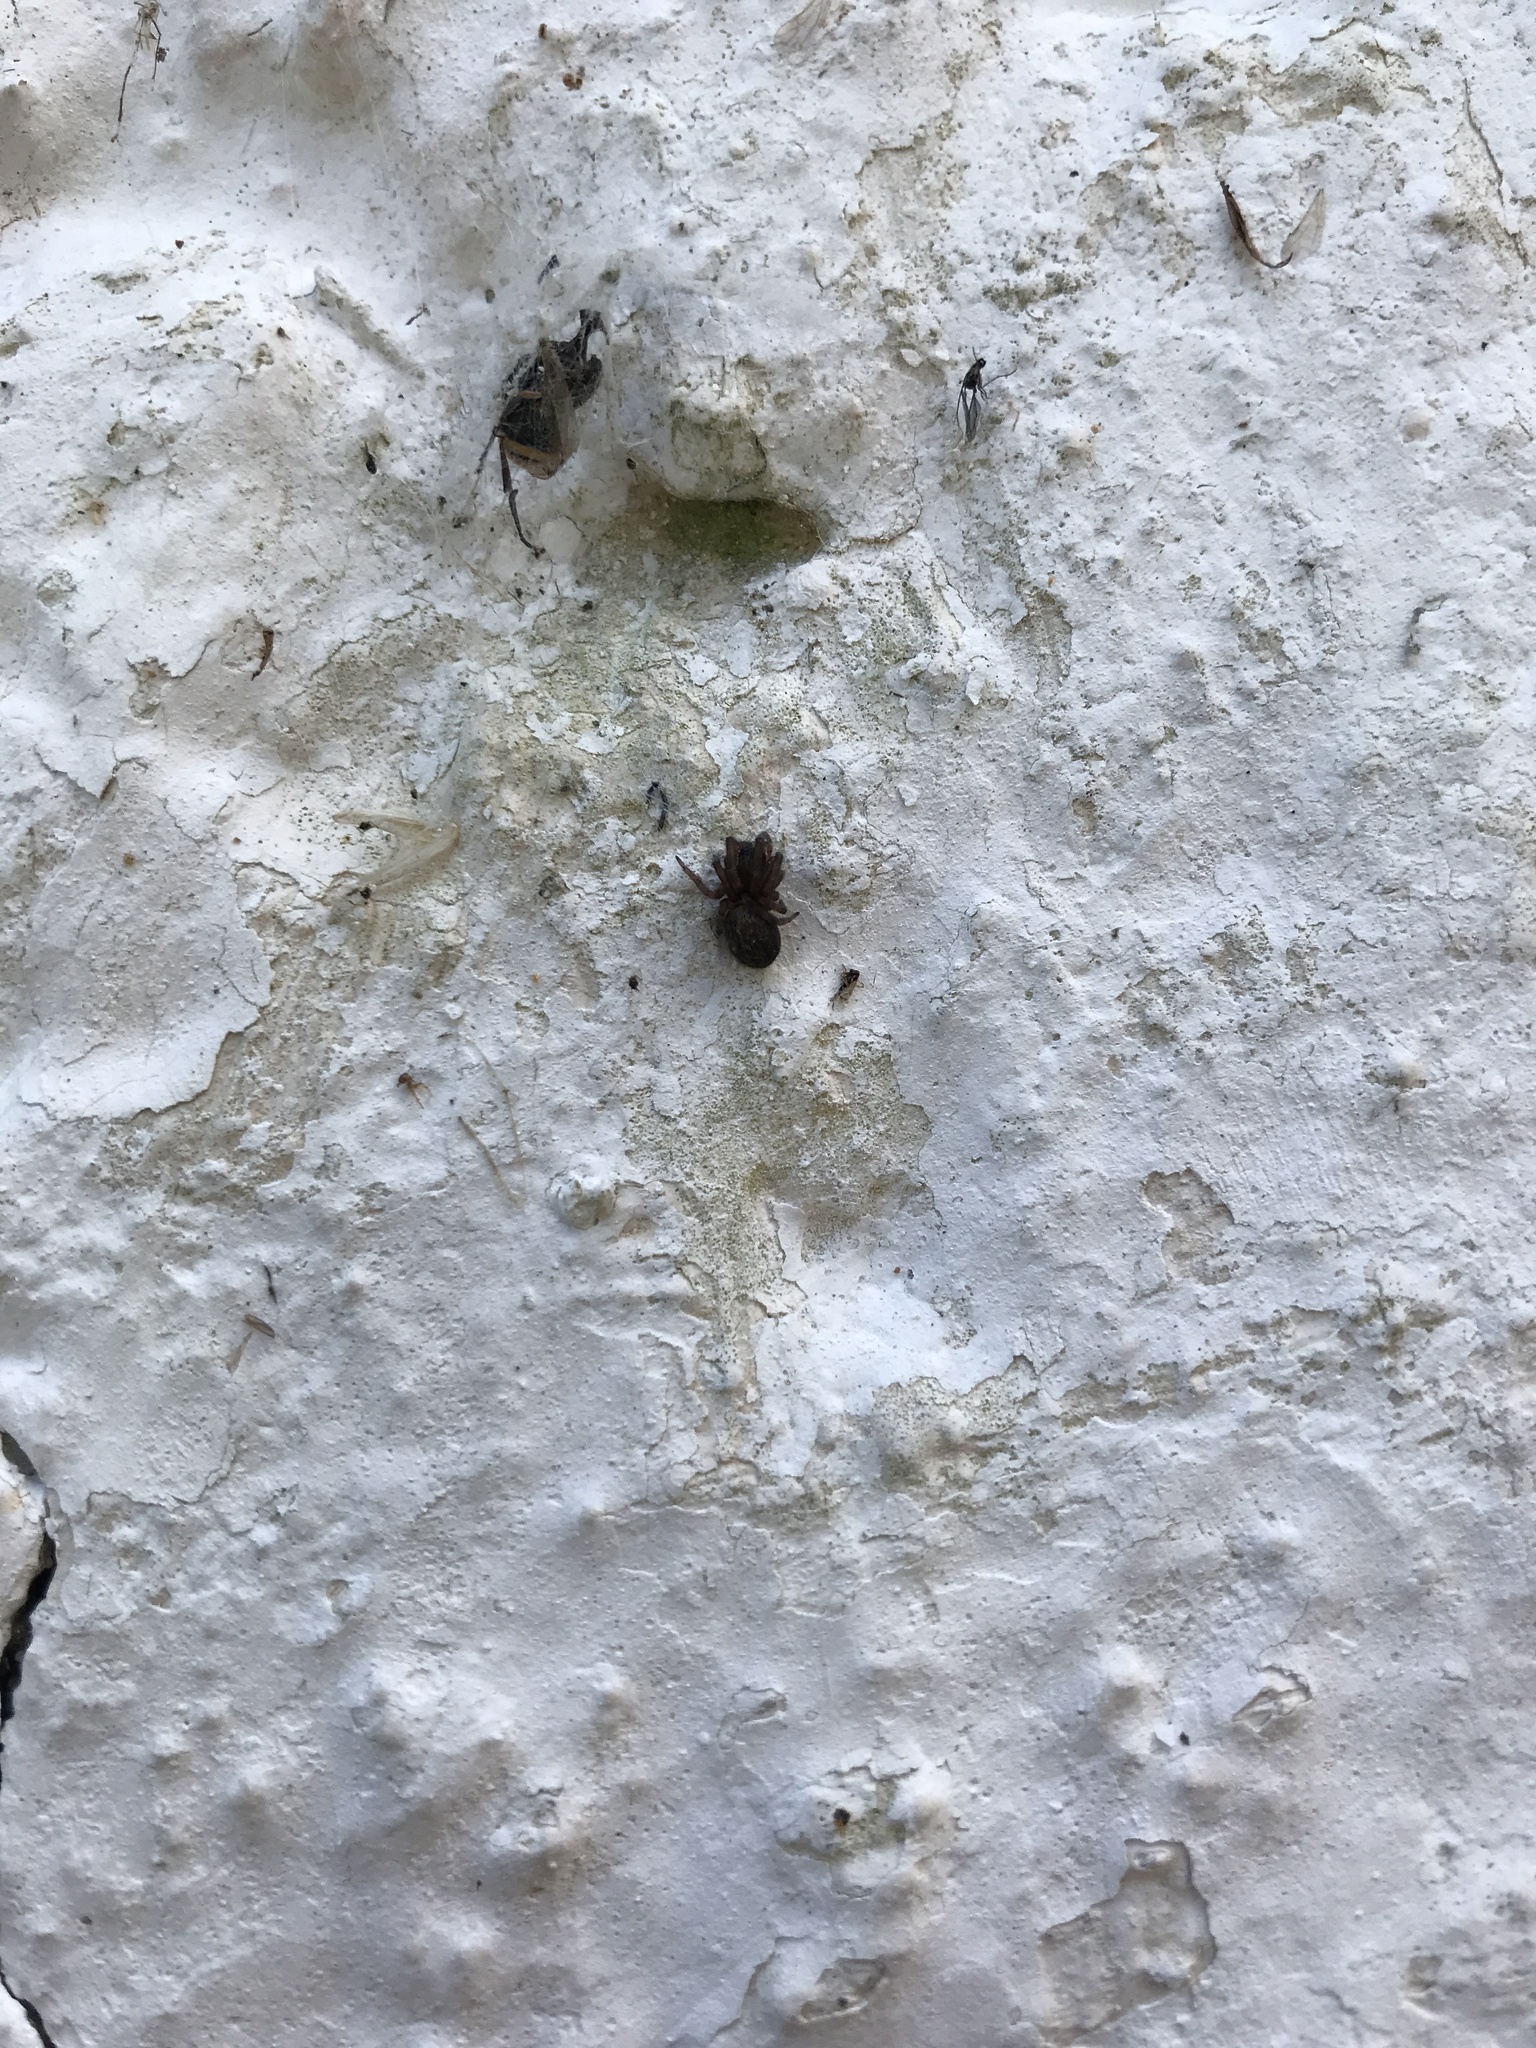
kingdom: Animalia
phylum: Arthropoda
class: Arachnida
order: Araneae
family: Desidae
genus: Badumna
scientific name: Badumna longinqua
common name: Gray house spider
